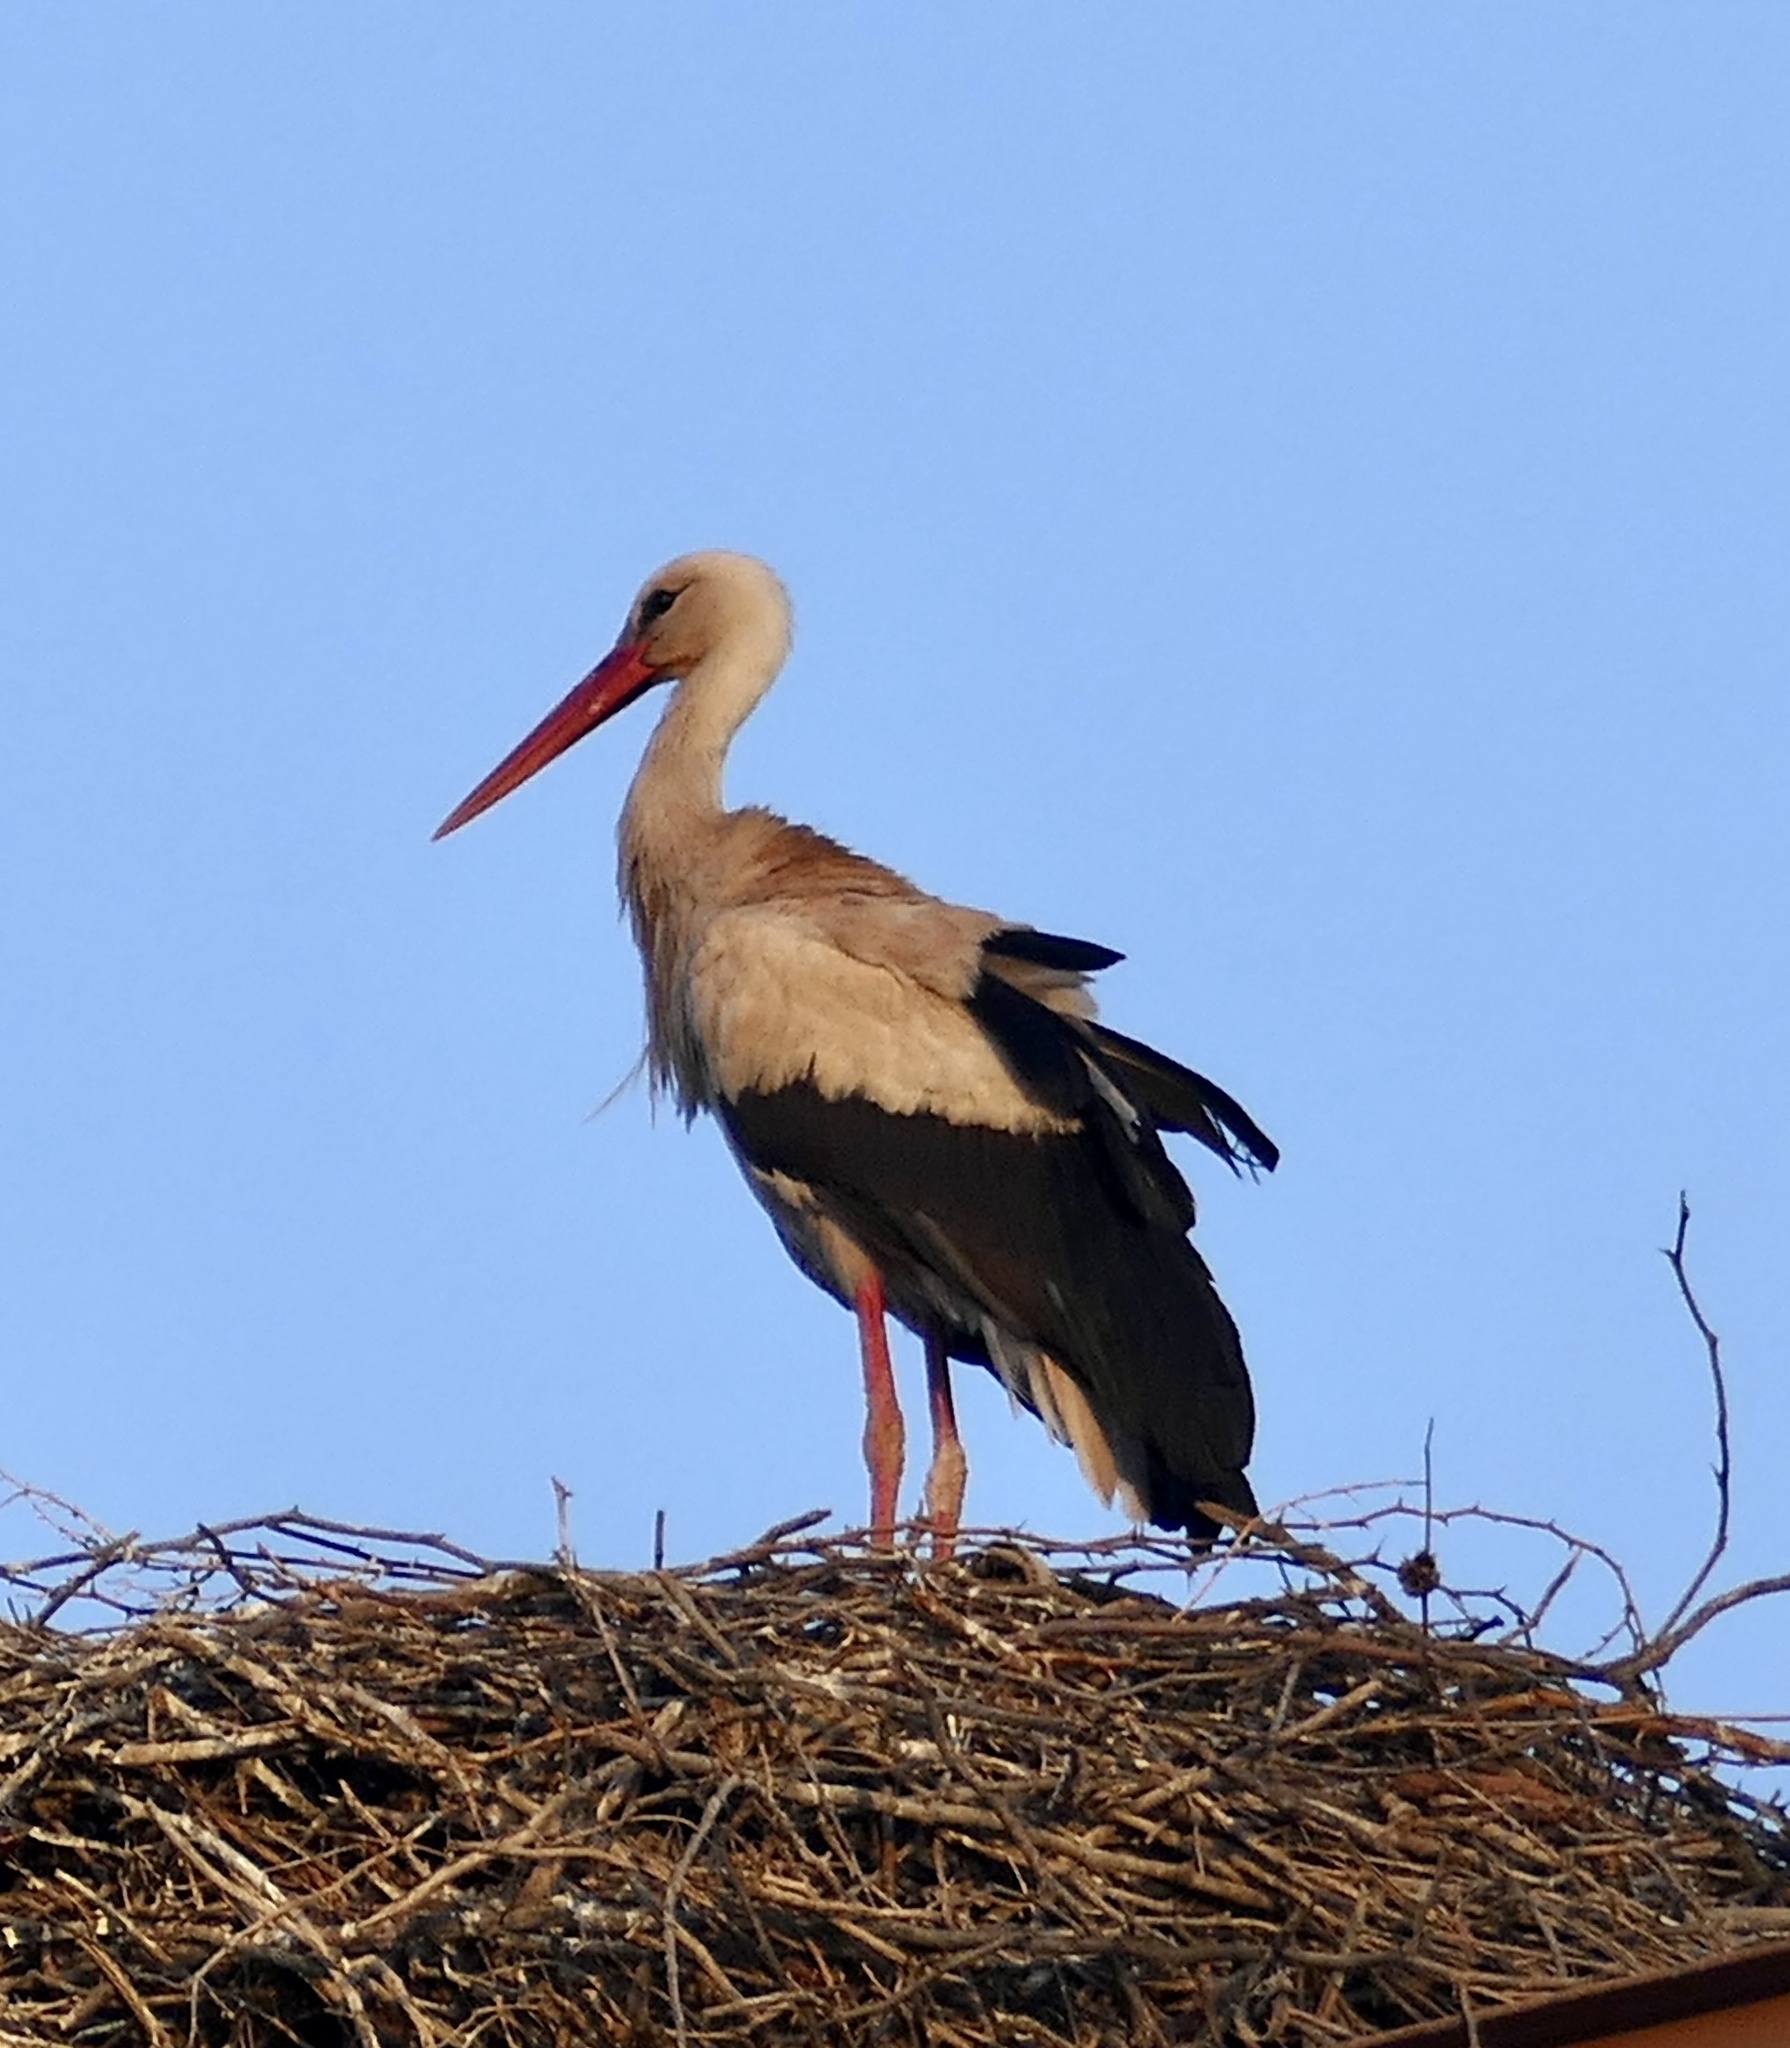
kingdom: Animalia
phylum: Chordata
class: Aves
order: Ciconiiformes
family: Ciconiidae
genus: Ciconia
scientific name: Ciconia ciconia
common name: White stork
